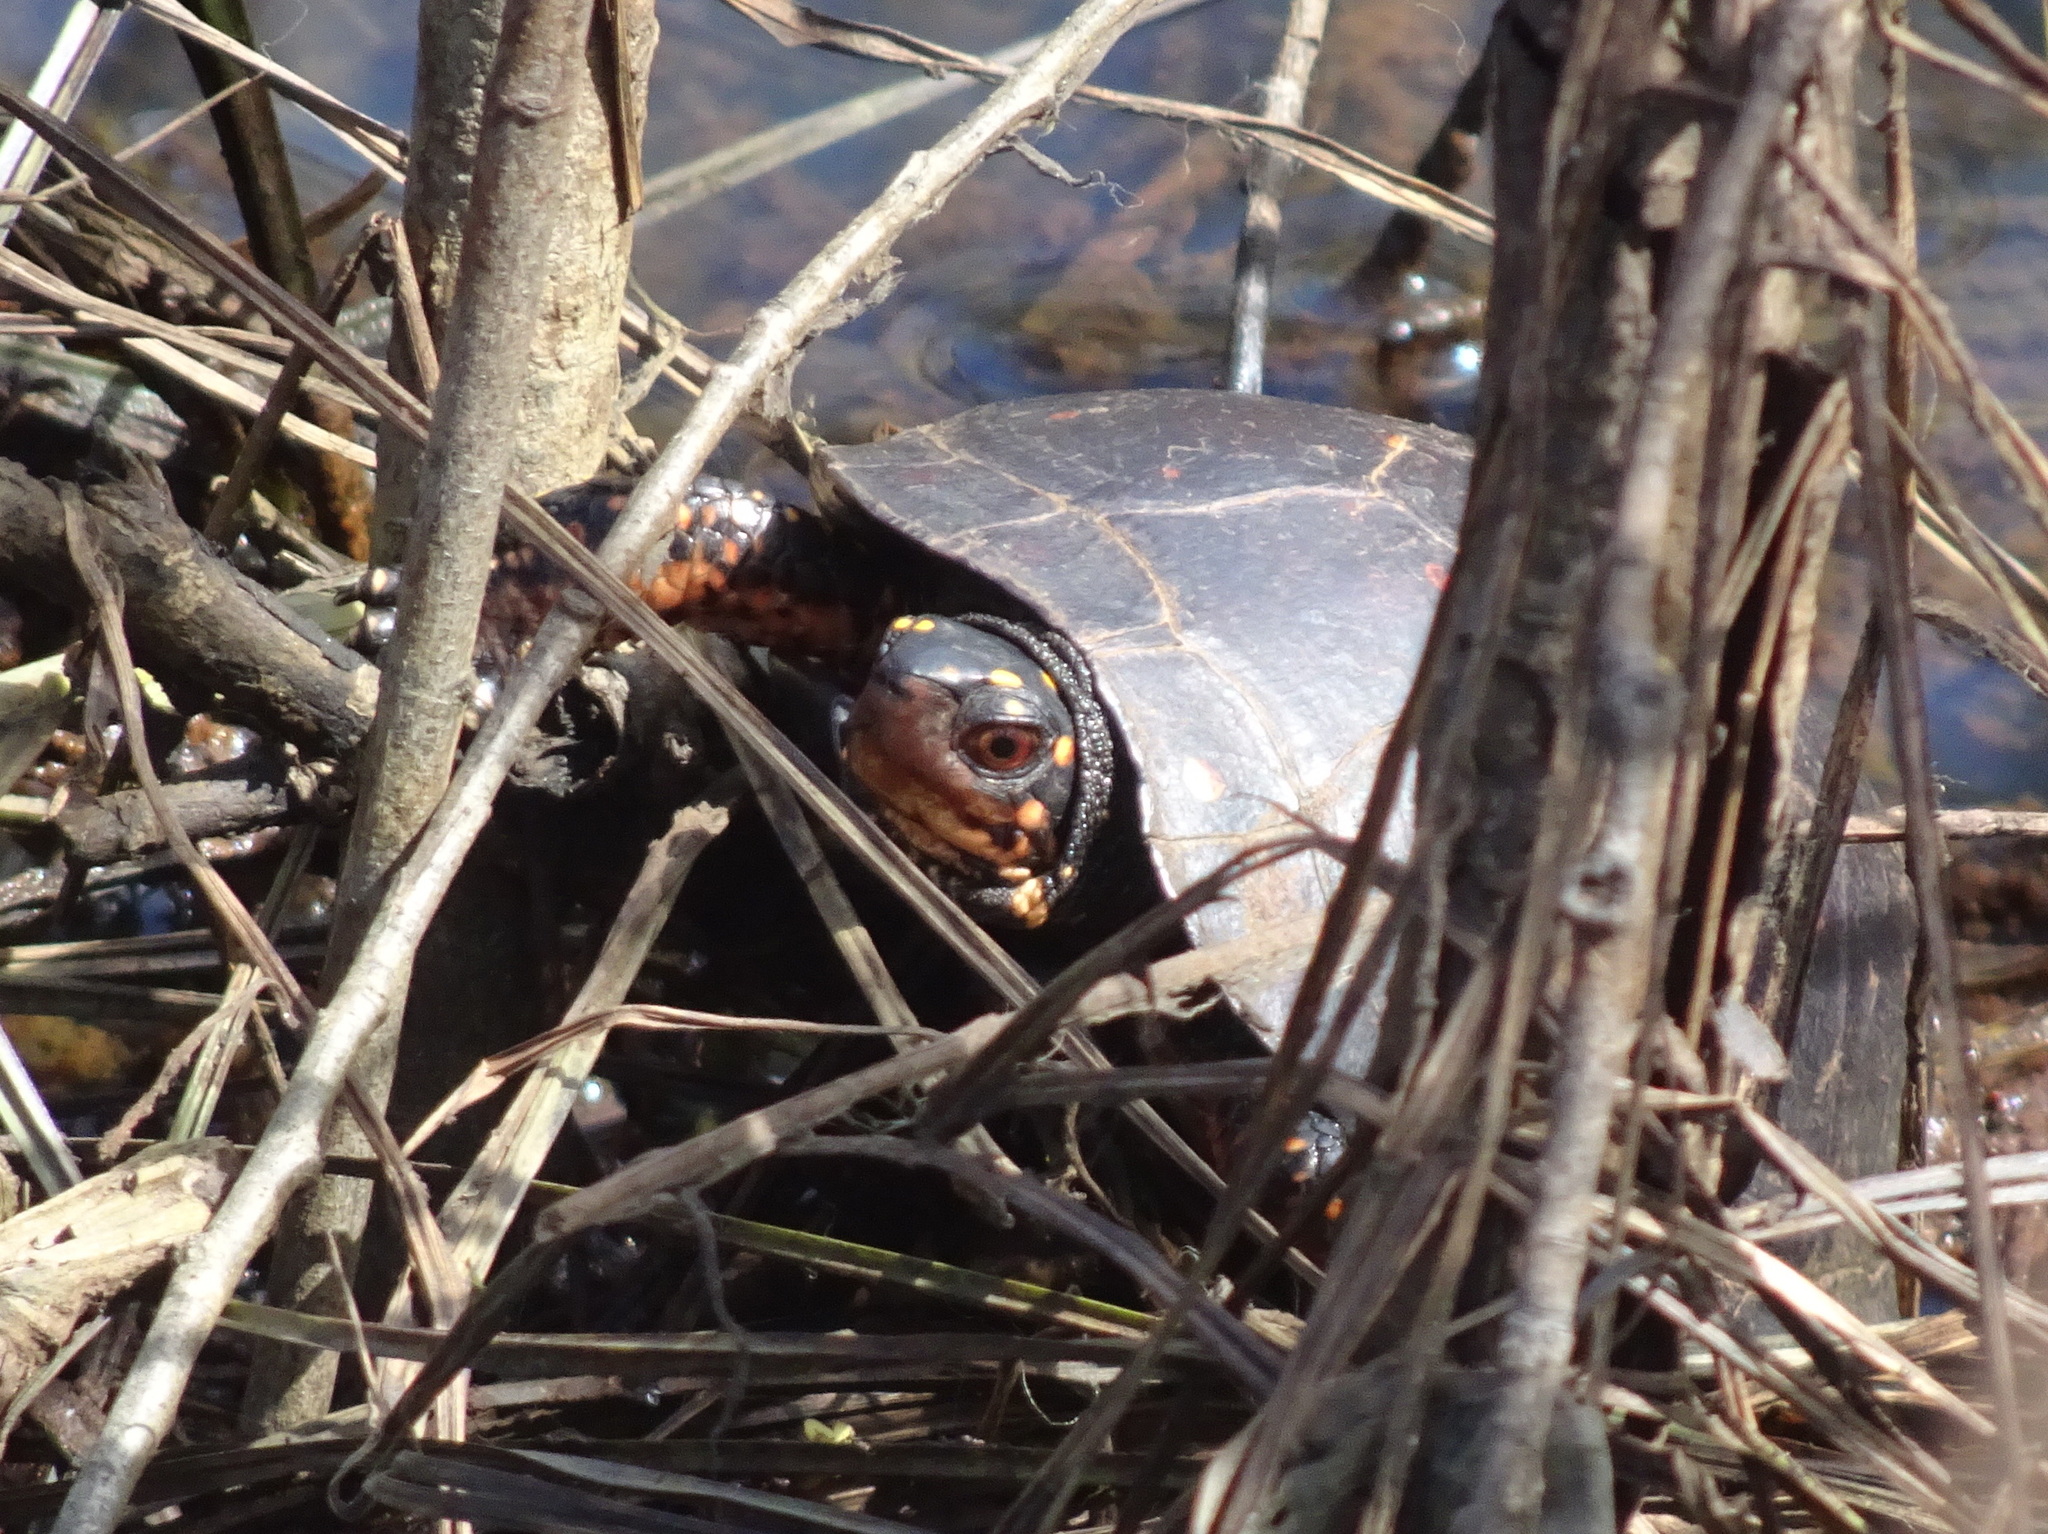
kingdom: Animalia
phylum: Chordata
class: Testudines
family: Emydidae
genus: Clemmys
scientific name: Clemmys guttata
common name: Spotted turtle
